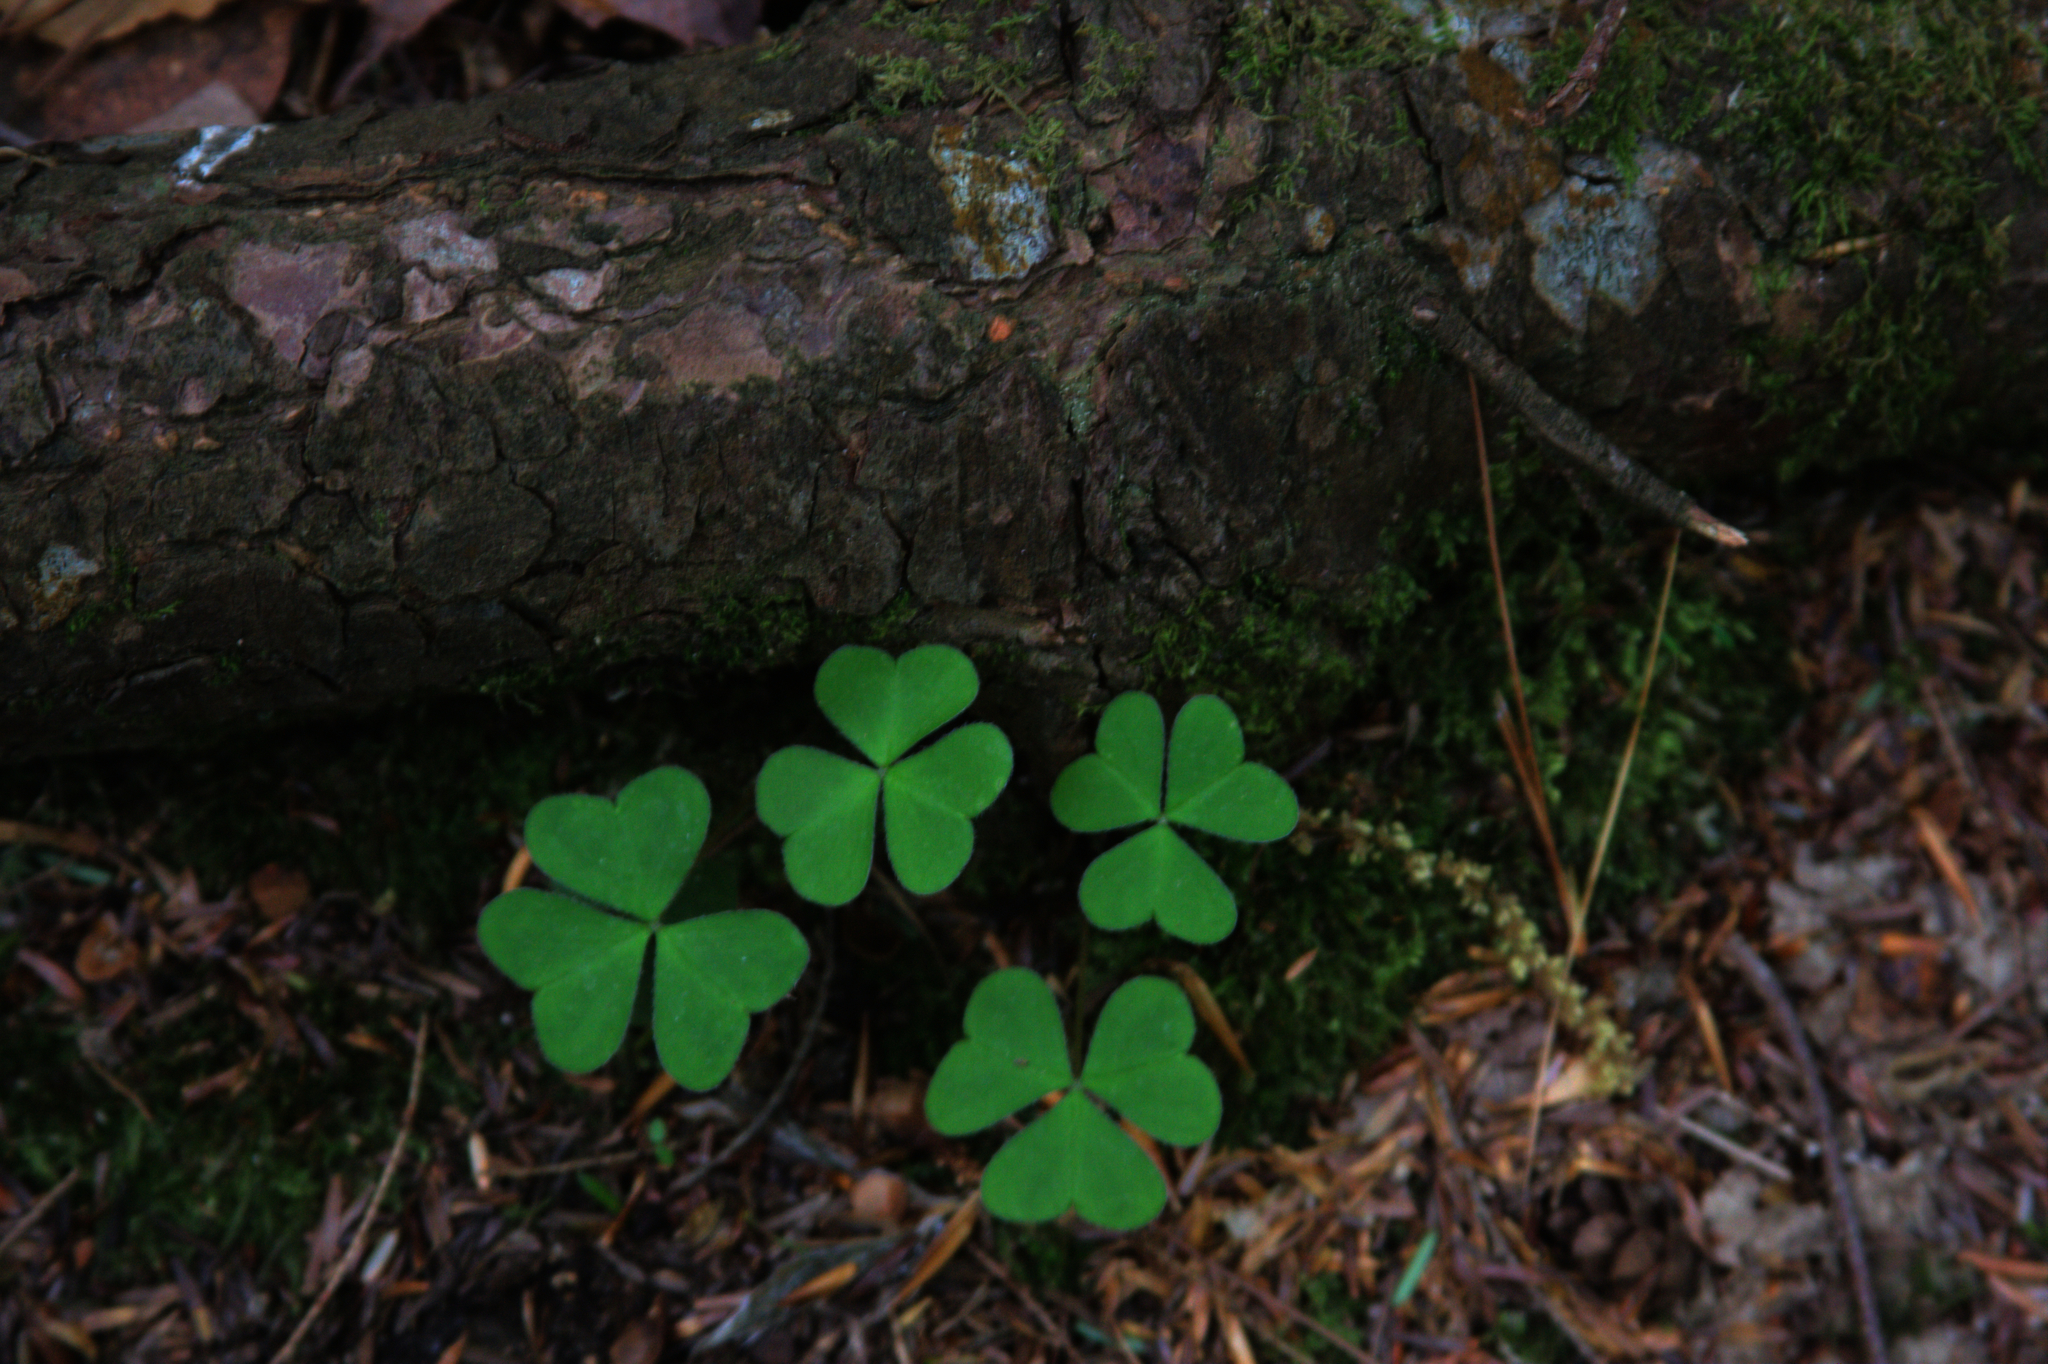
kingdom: Plantae
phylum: Tracheophyta
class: Magnoliopsida
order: Oxalidales
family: Oxalidaceae
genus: Oxalis
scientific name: Oxalis montana
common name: American wood-sorrel
